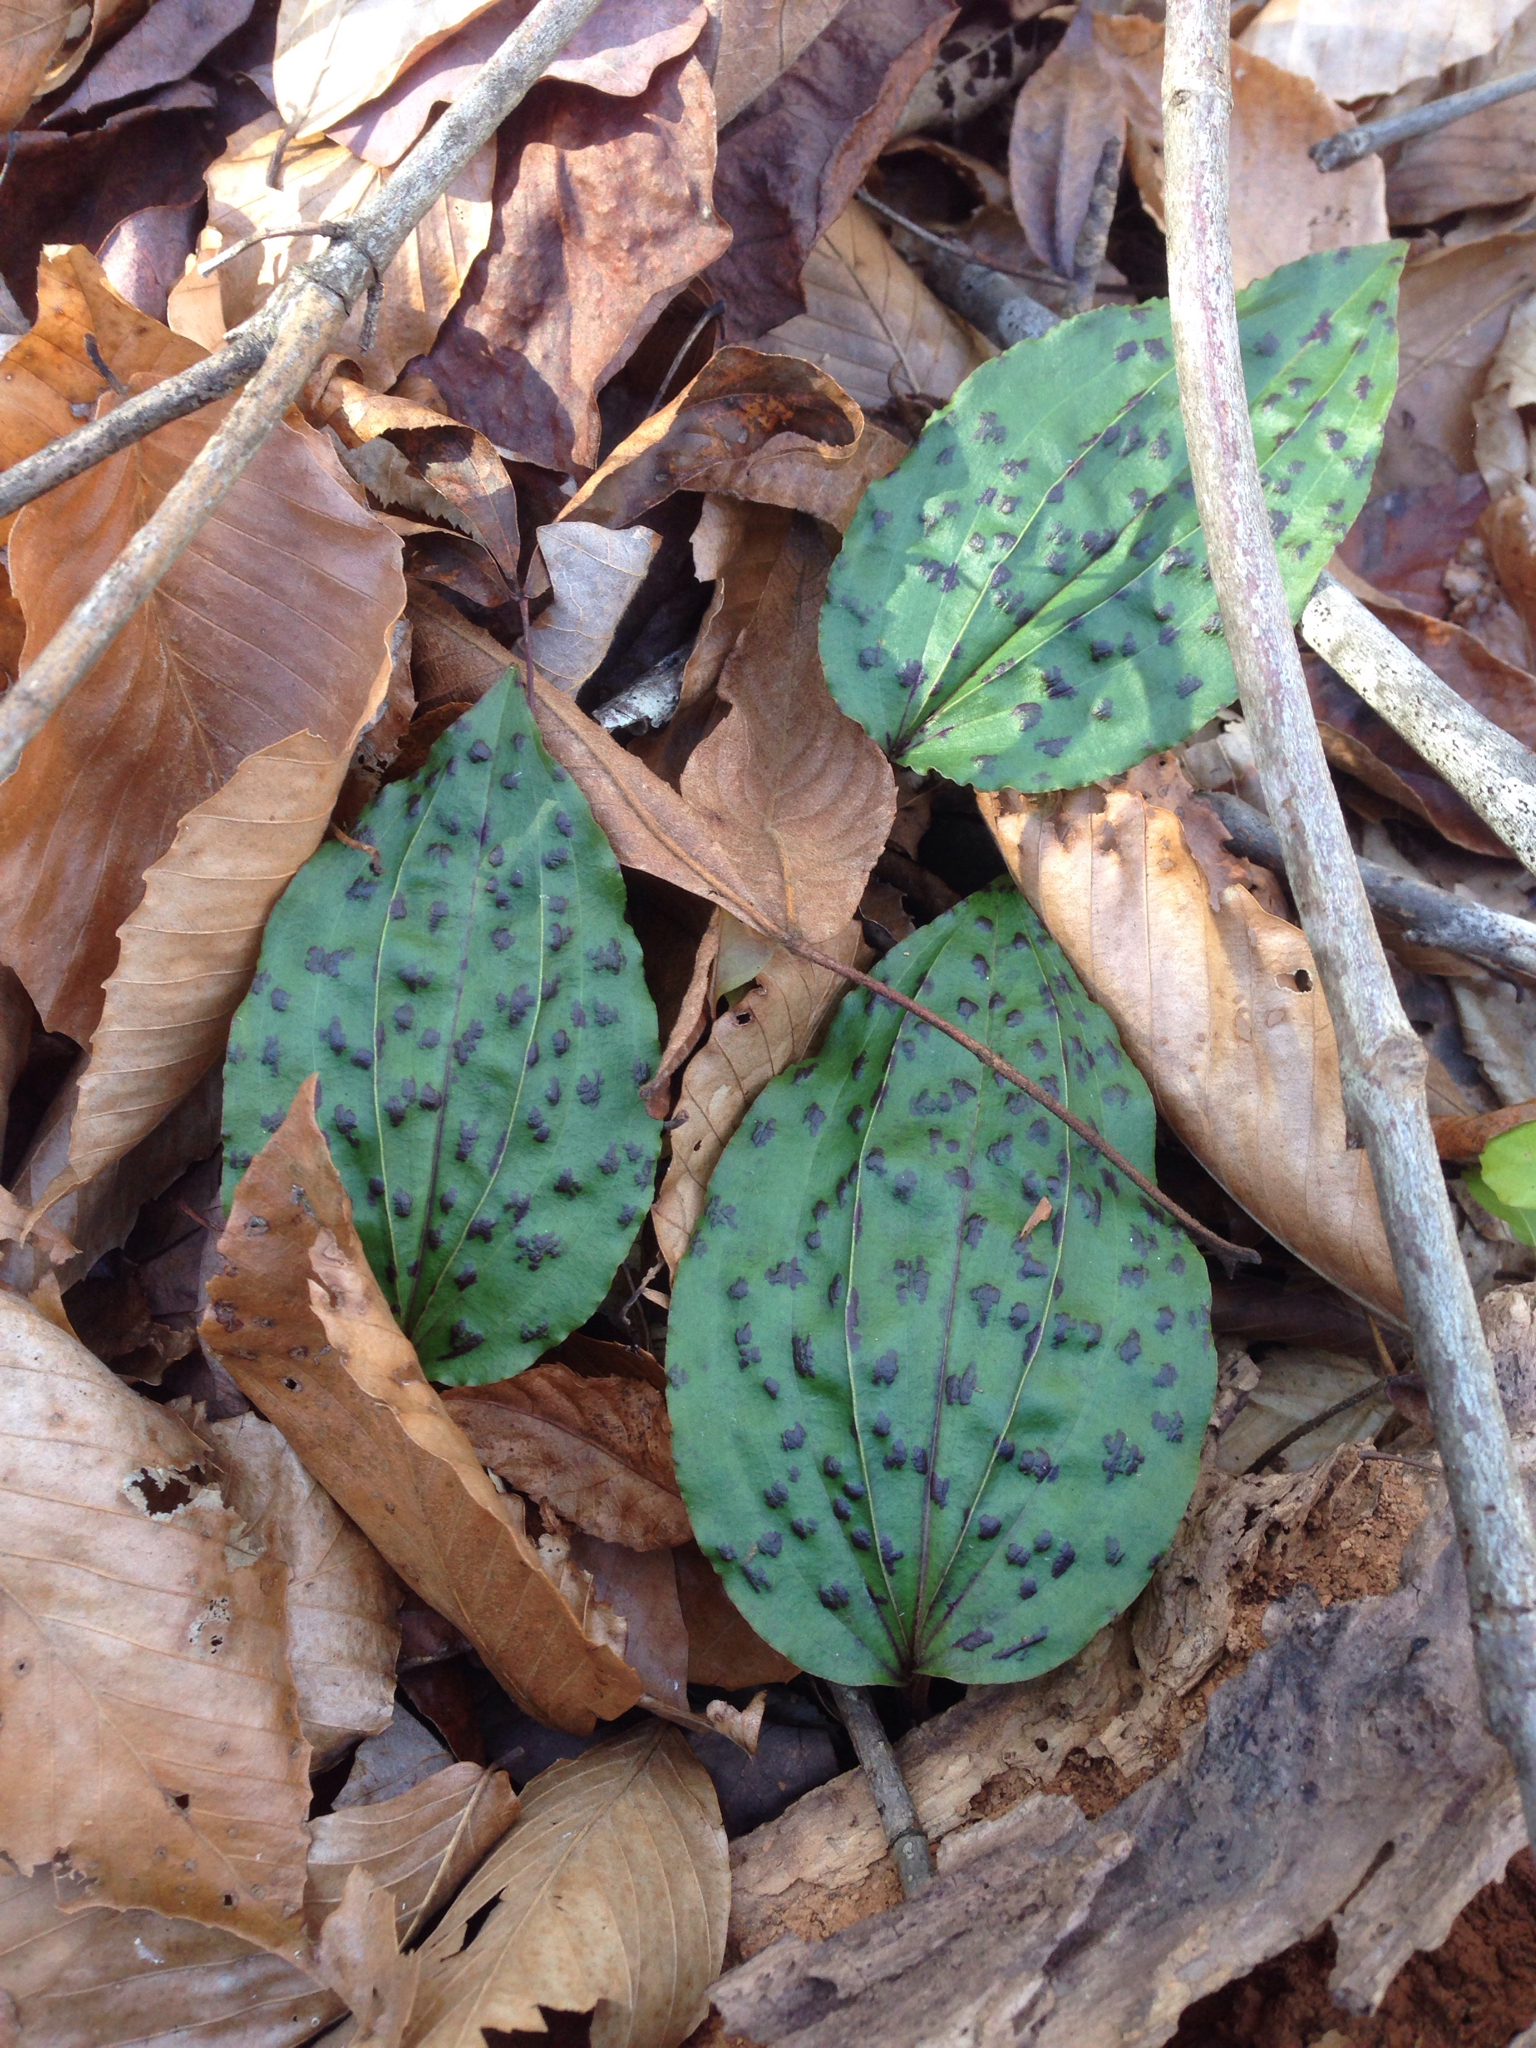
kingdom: Plantae
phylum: Tracheophyta
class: Liliopsida
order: Asparagales
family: Orchidaceae
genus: Tipularia
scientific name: Tipularia discolor
